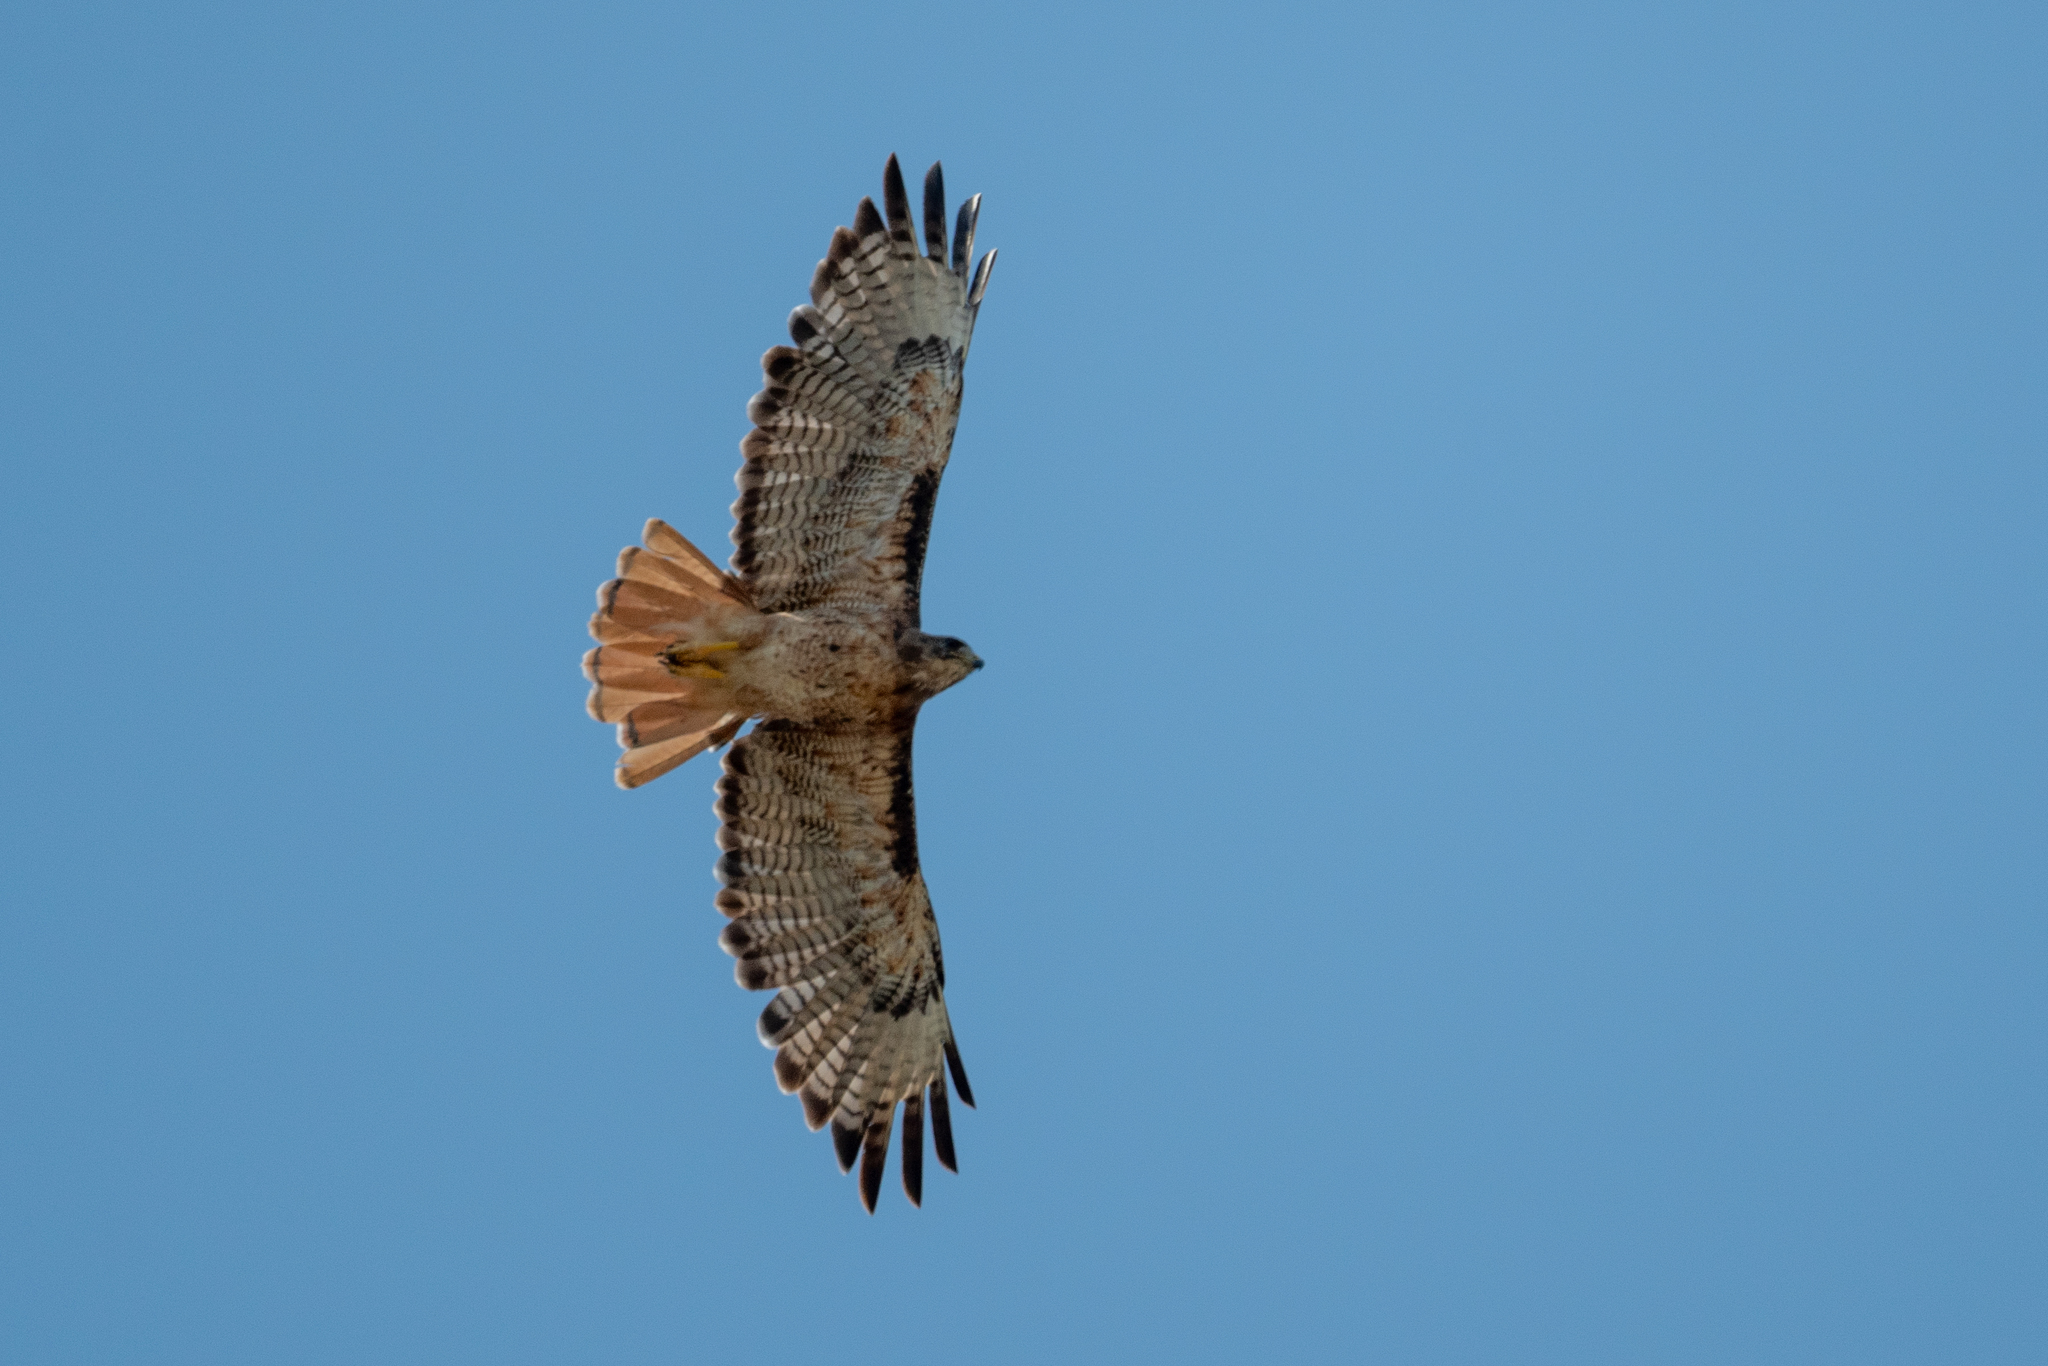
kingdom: Animalia
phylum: Chordata
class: Aves
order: Accipitriformes
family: Accipitridae
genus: Buteo
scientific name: Buteo jamaicensis
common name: Red-tailed hawk
